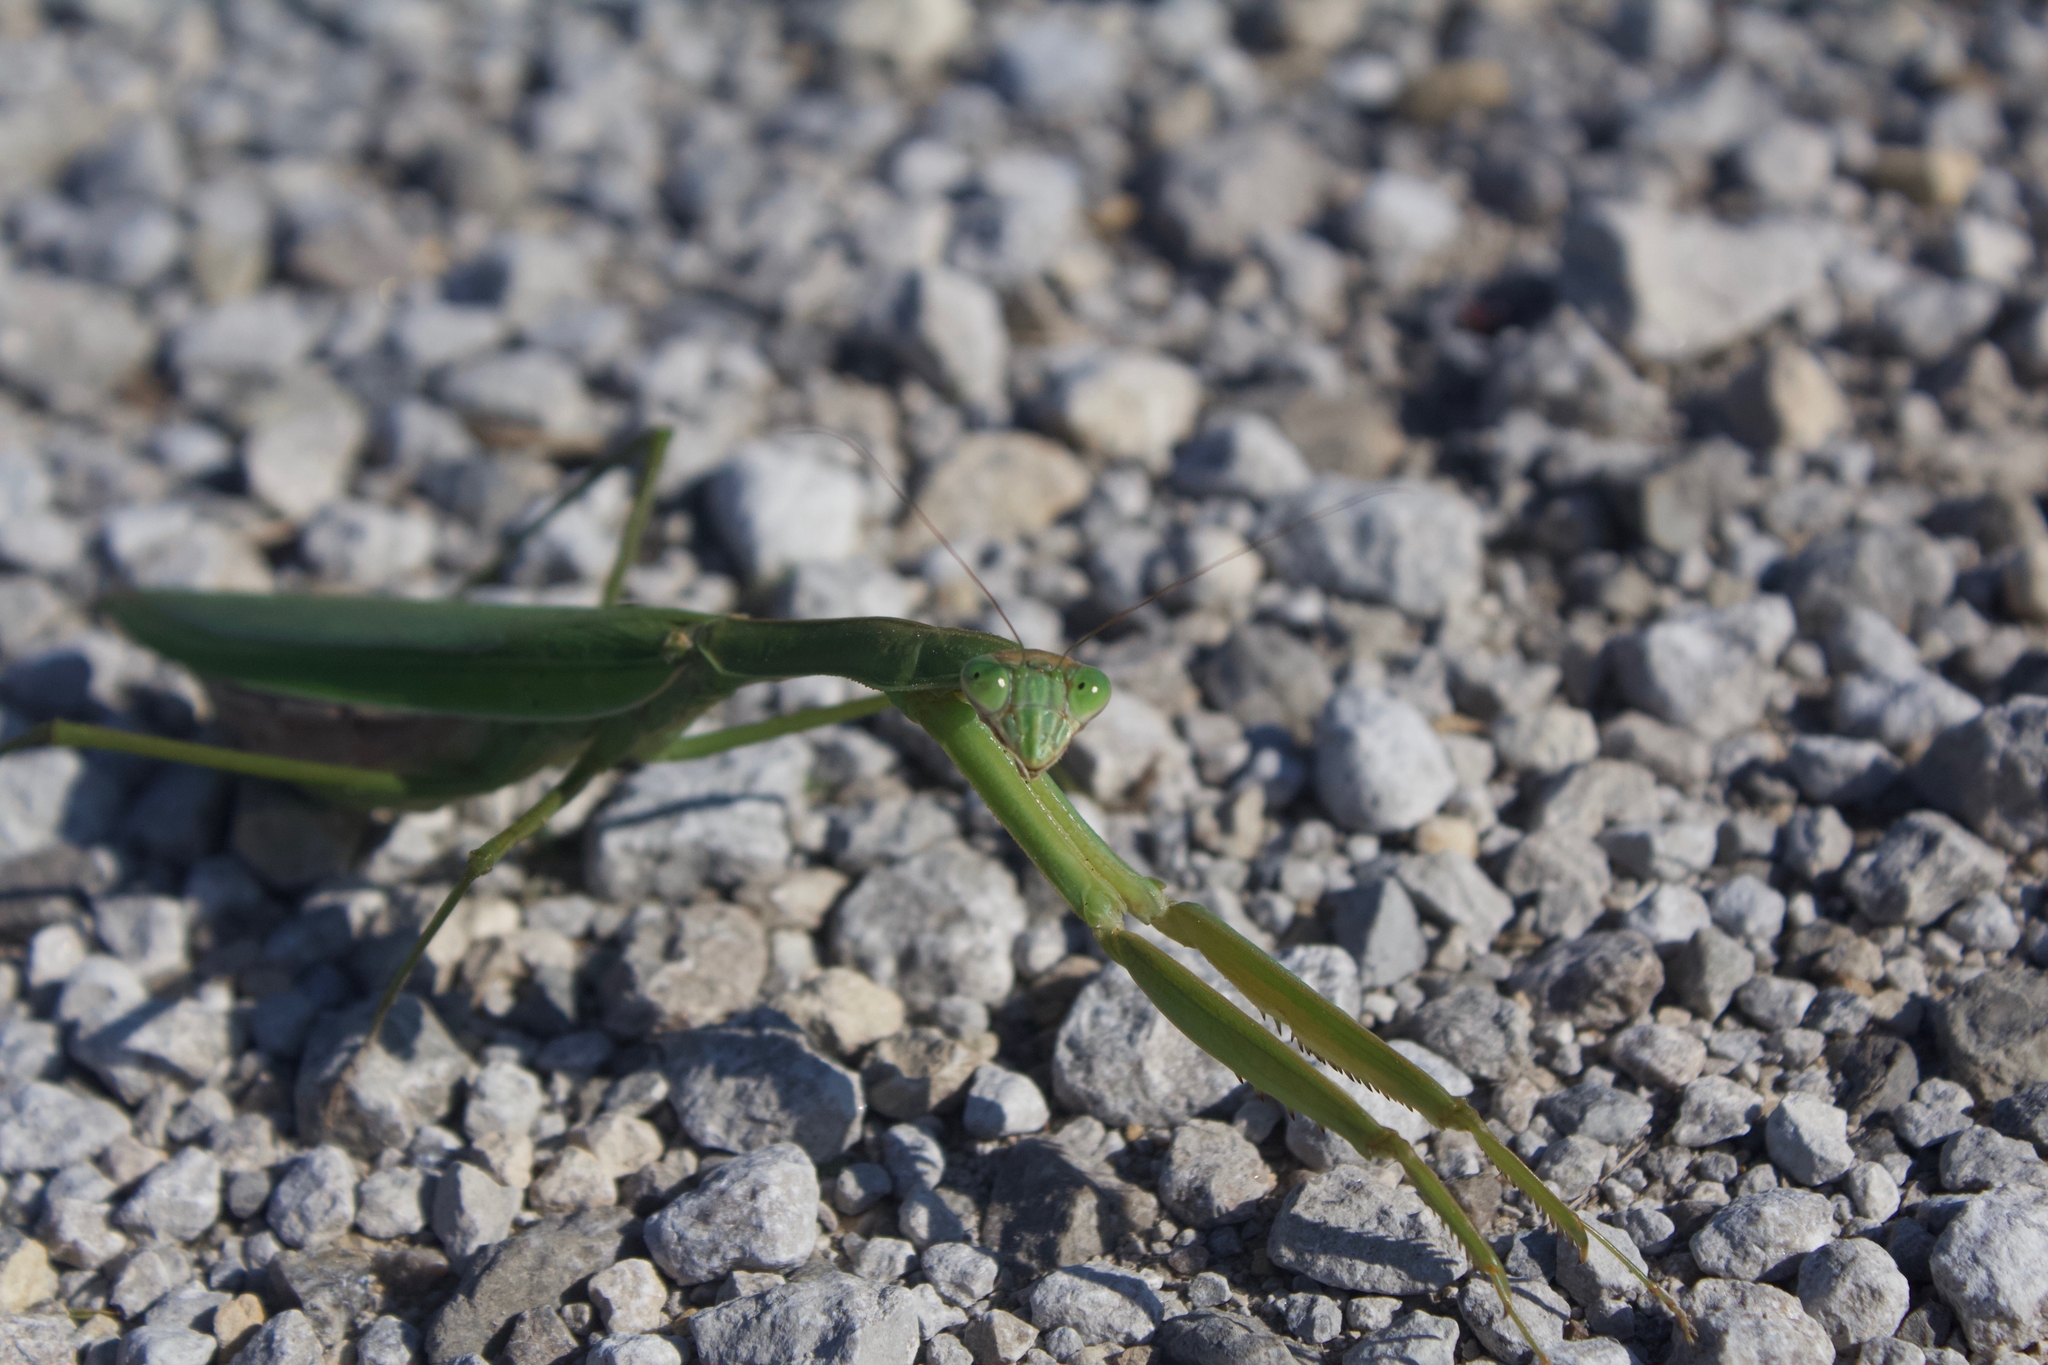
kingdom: Animalia
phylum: Arthropoda
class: Insecta
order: Mantodea
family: Mantidae
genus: Tenodera
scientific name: Tenodera sinensis
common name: Chinese mantis
